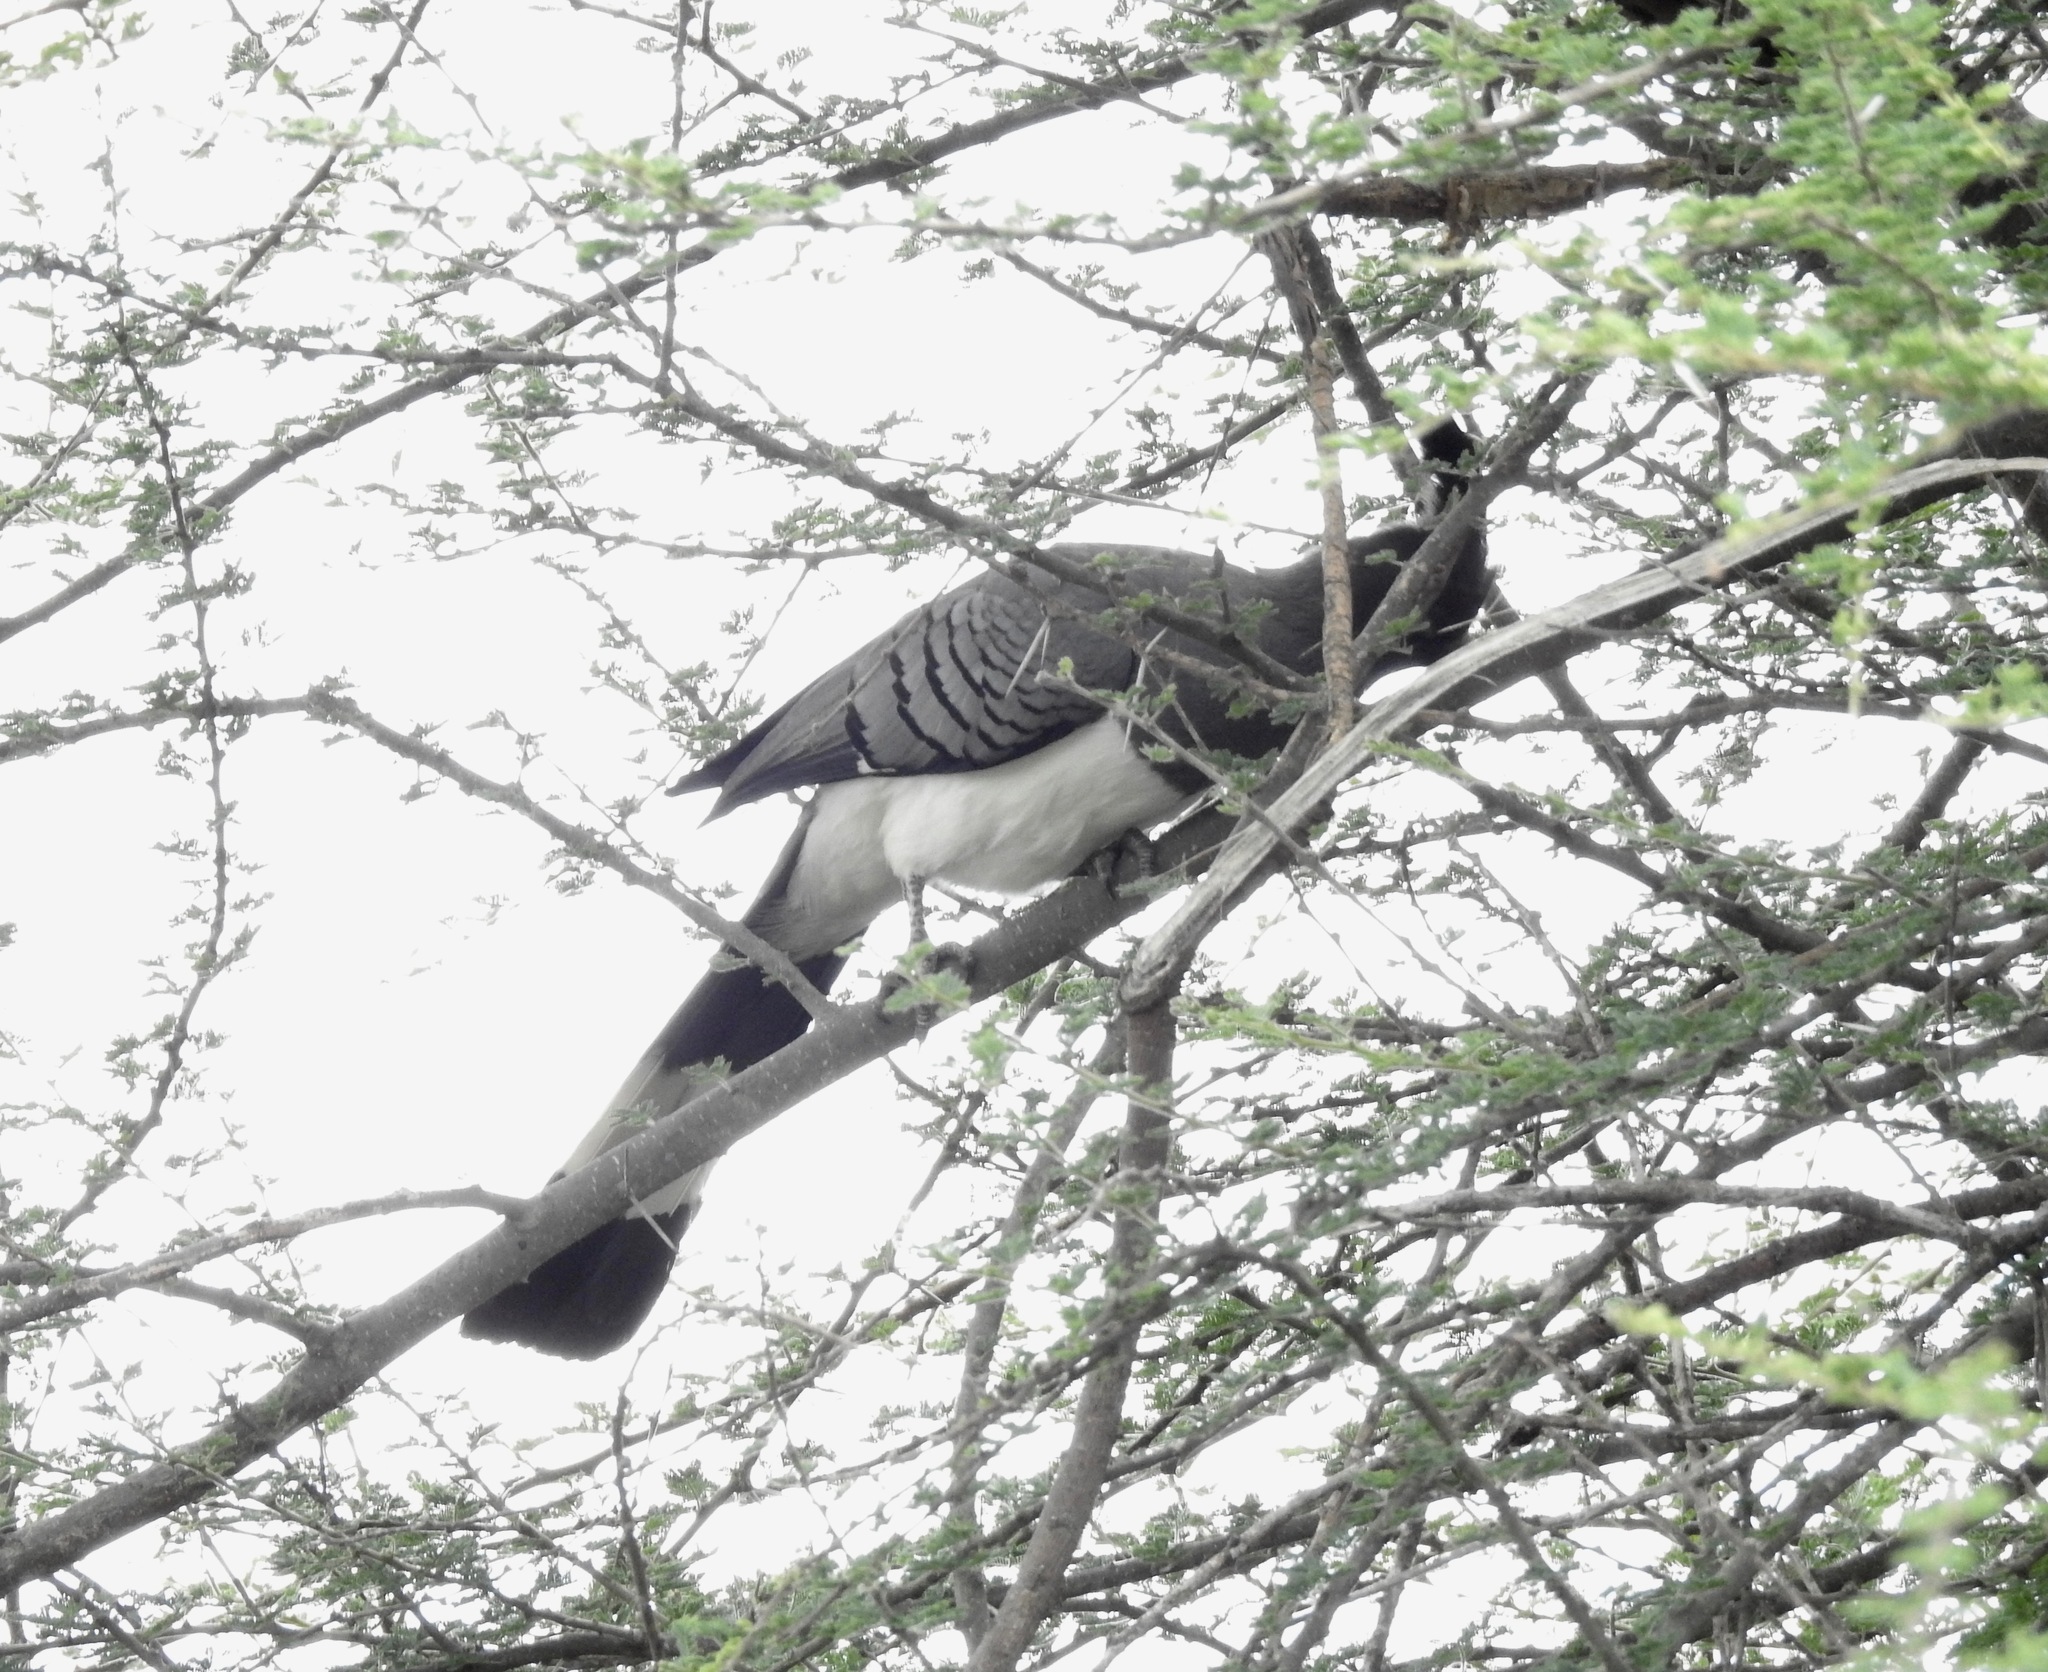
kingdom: Animalia
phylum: Chordata
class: Aves
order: Musophagiformes
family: Musophagidae
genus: Corythaixoides
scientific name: Corythaixoides leucogaster
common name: White-bellied go-away-bird
